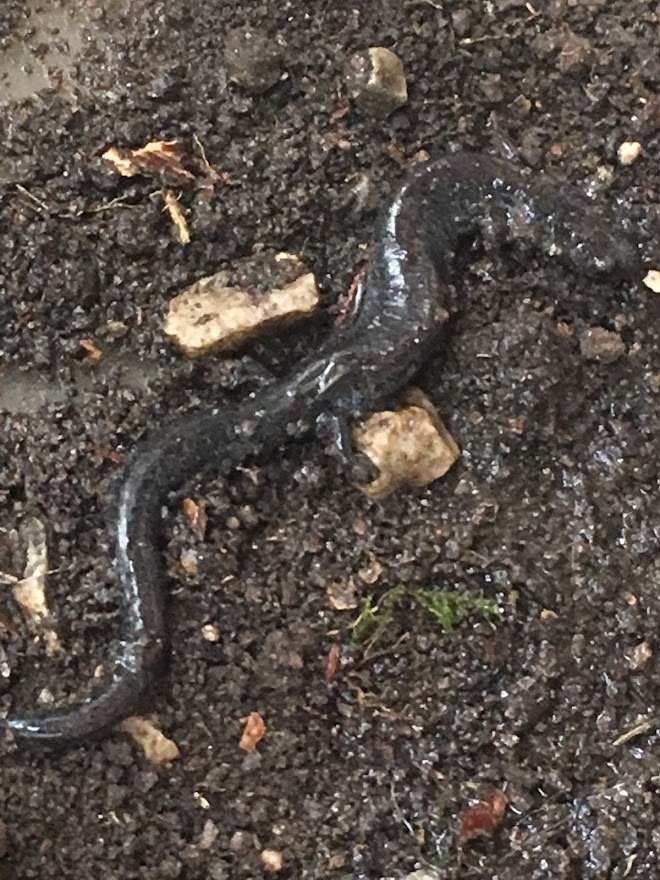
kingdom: Animalia
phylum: Chordata
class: Amphibia
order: Caudata
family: Plethodontidae
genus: Plethodon
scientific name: Plethodon cinereus
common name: Redback salamander
